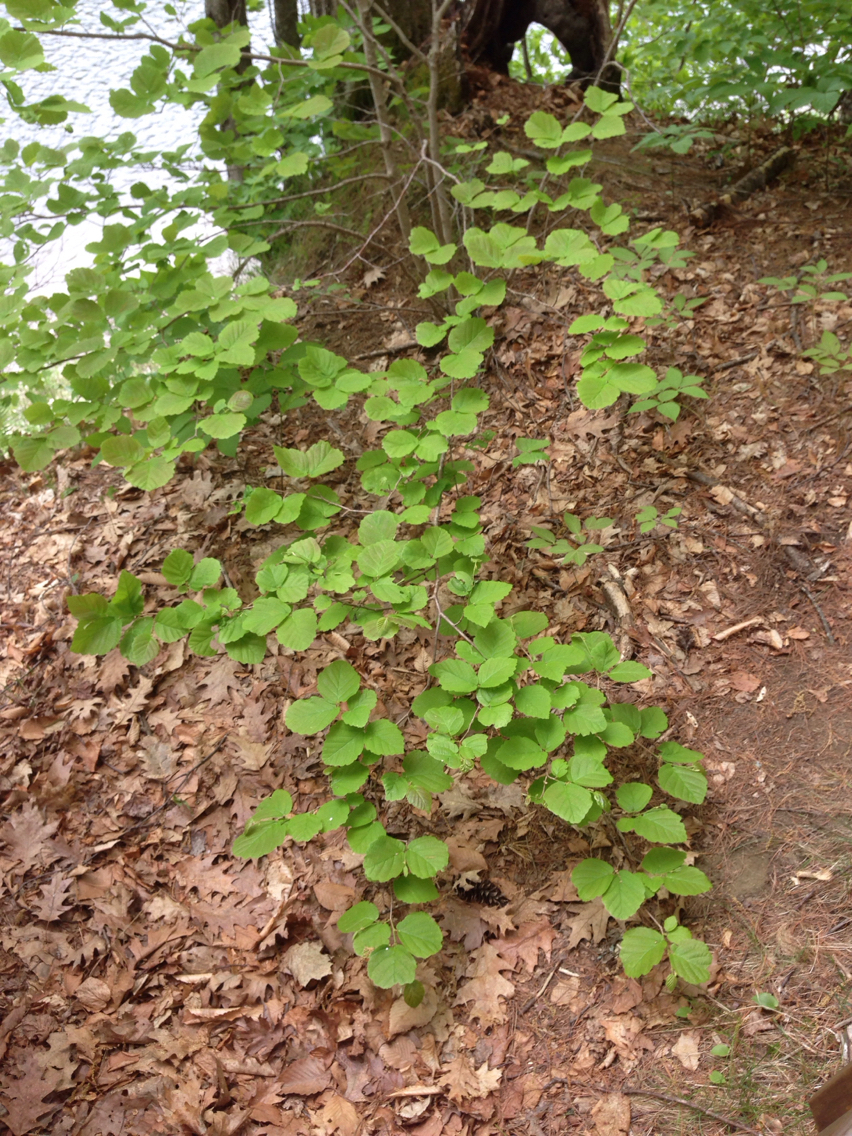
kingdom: Plantae
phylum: Tracheophyta
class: Magnoliopsida
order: Saxifragales
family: Hamamelidaceae
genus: Hamamelis
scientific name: Hamamelis virginiana
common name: Witch-hazel
